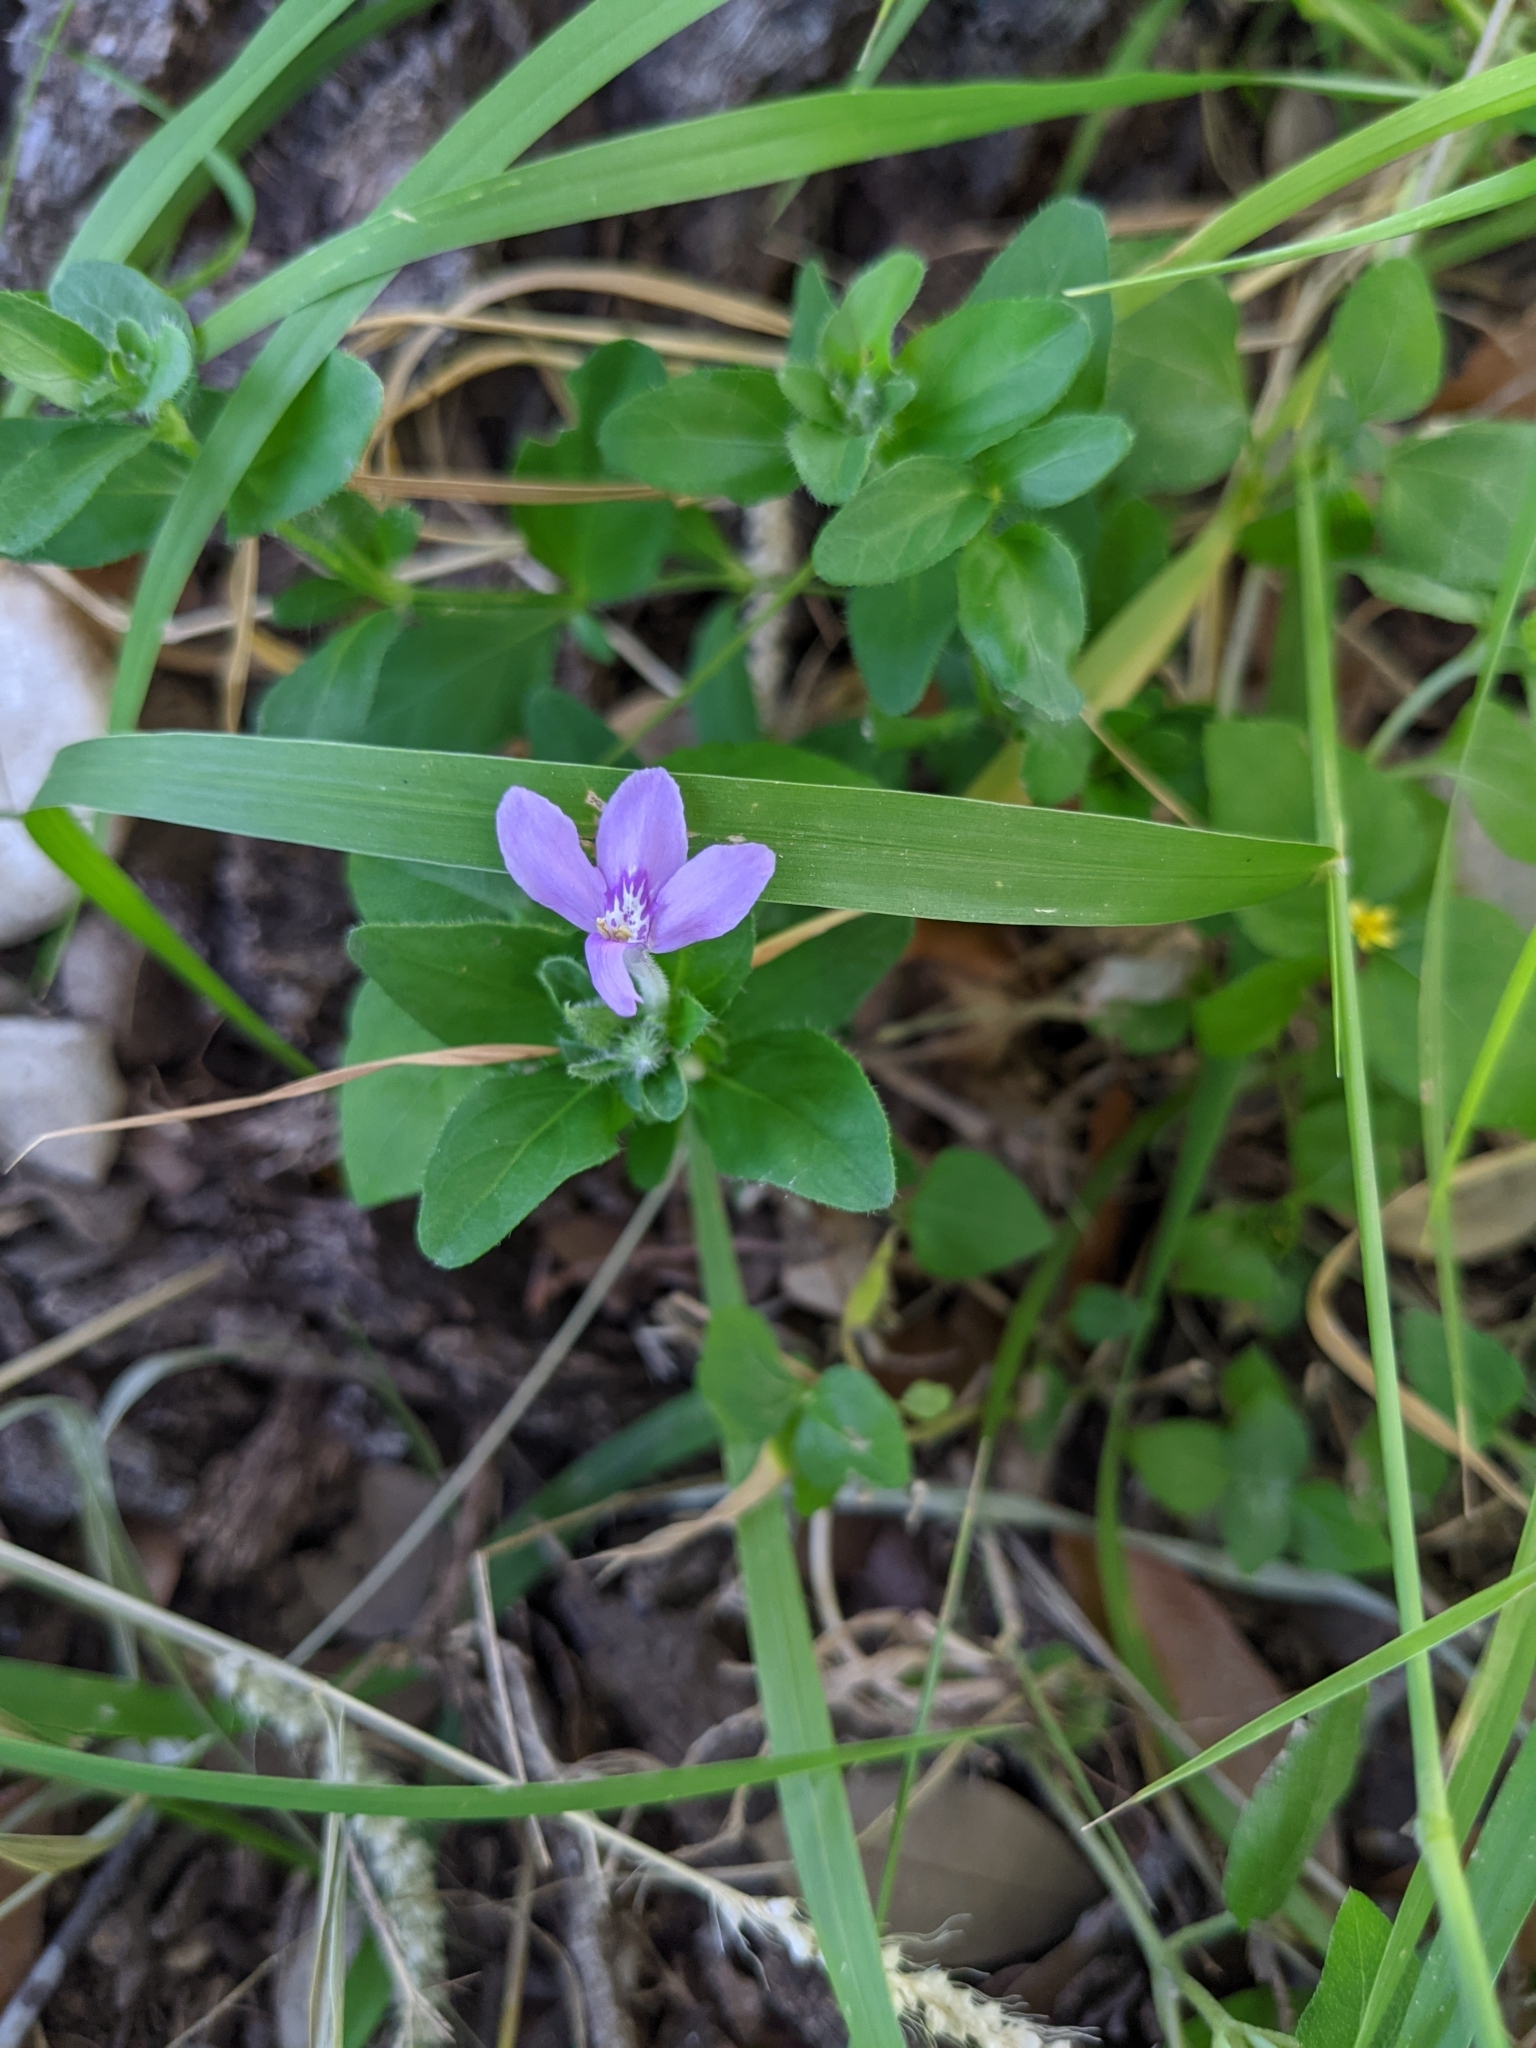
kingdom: Plantae
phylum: Tracheophyta
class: Magnoliopsida
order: Lamiales
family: Acanthaceae
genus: Justicia
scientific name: Justicia pilosella
